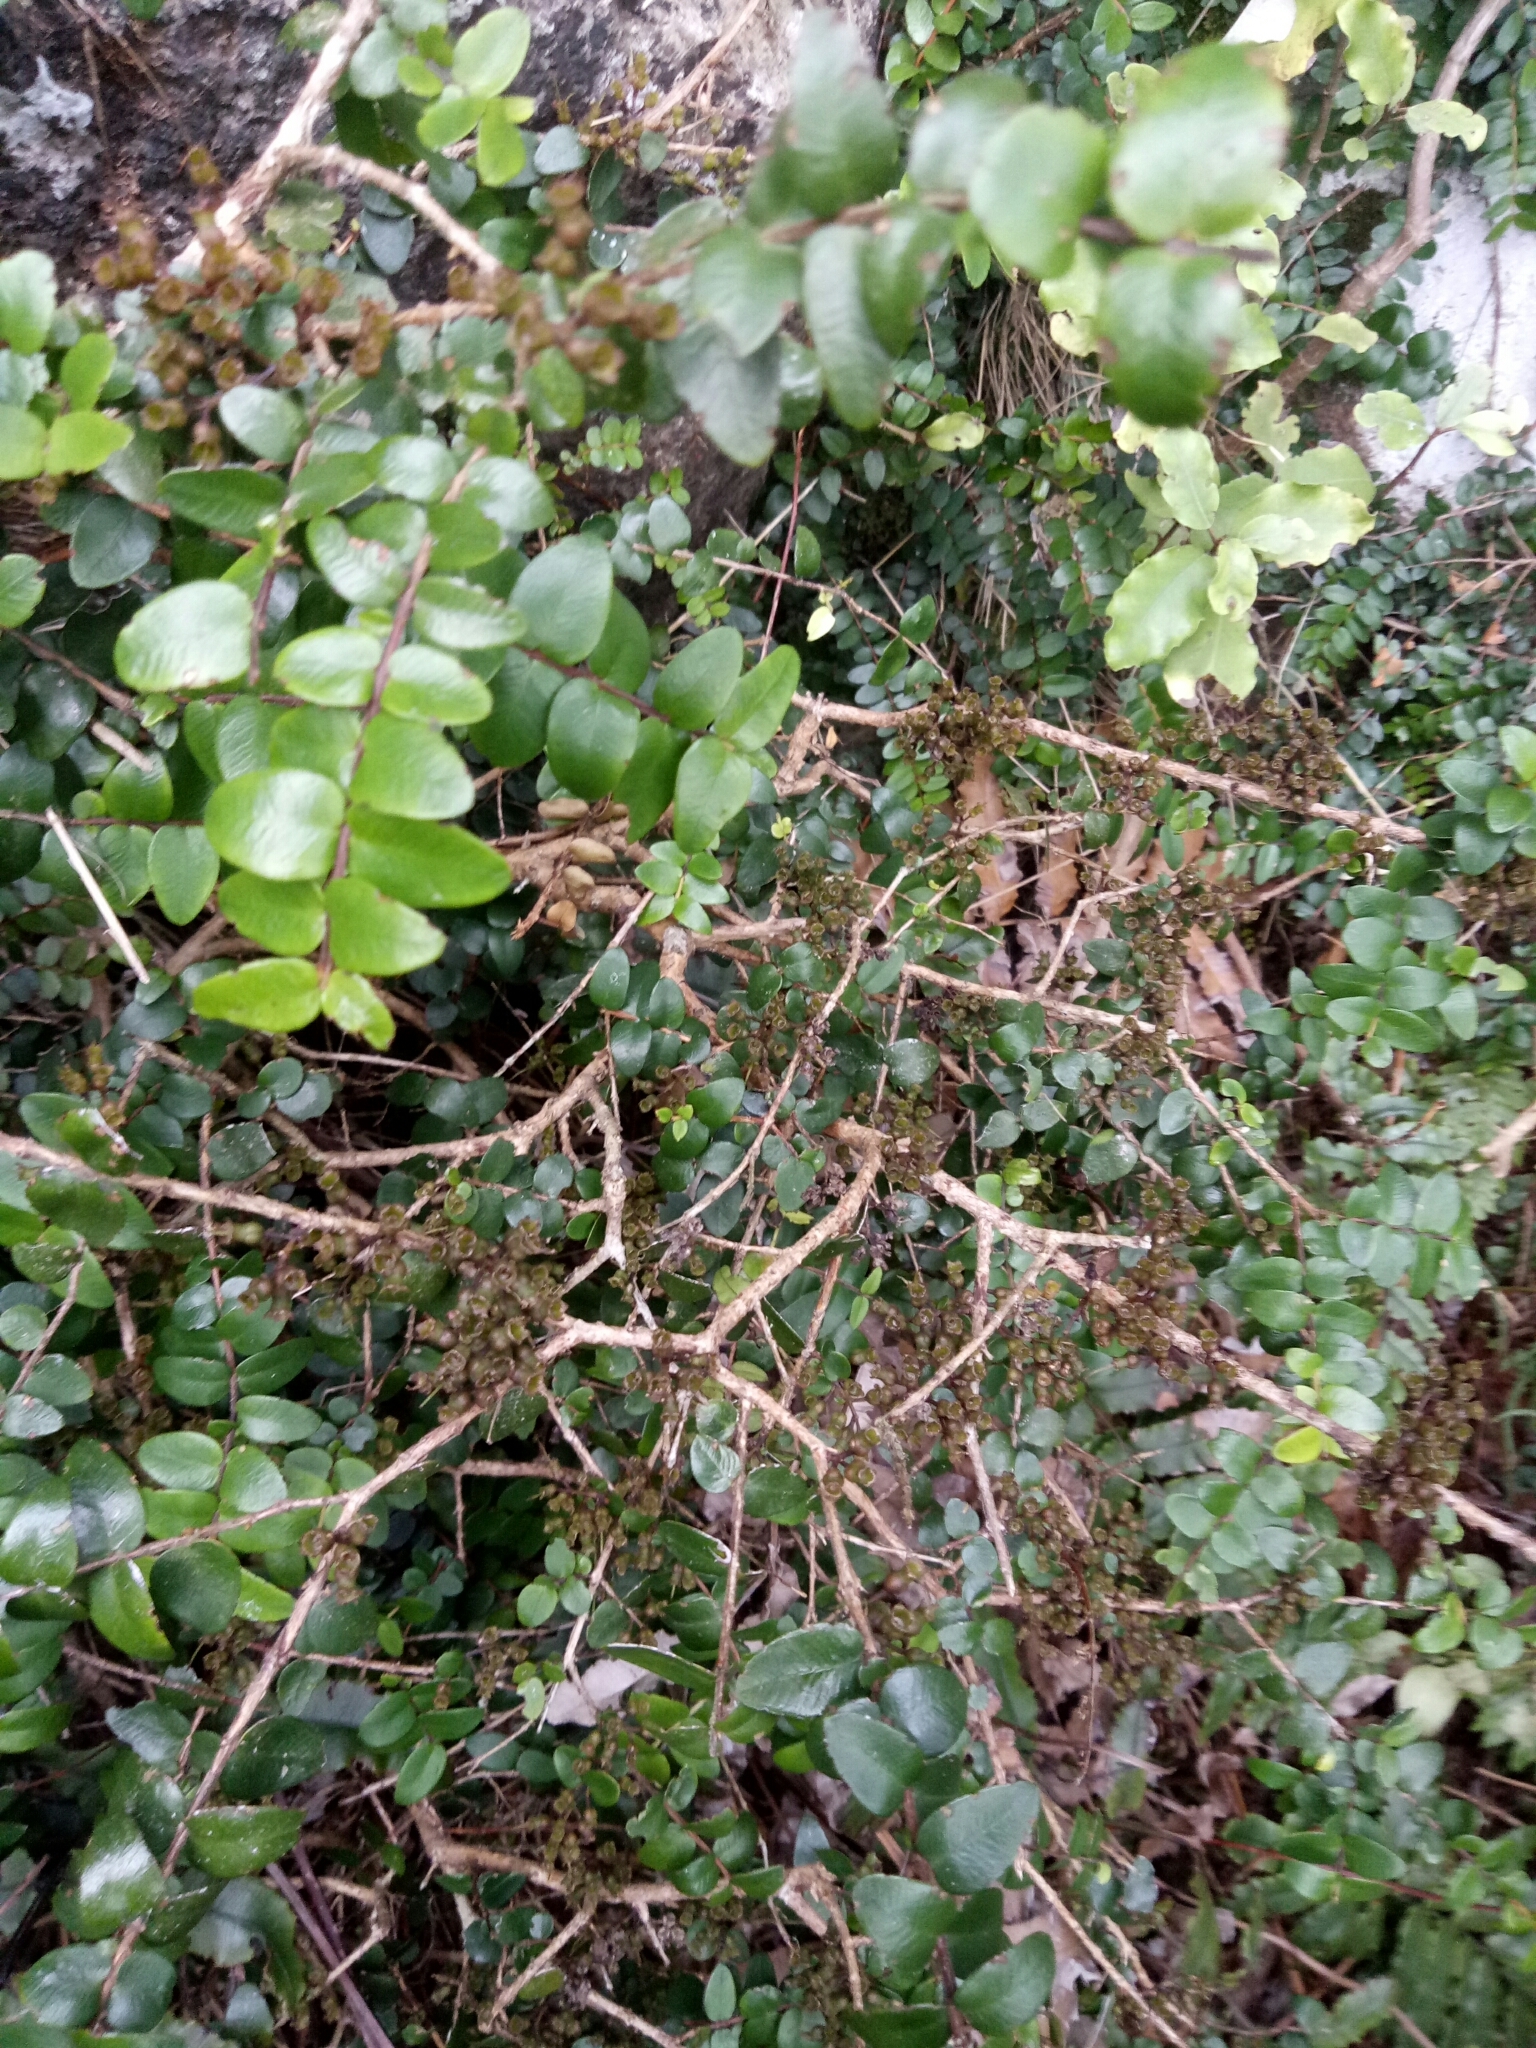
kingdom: Plantae
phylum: Tracheophyta
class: Magnoliopsida
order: Myrtales
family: Myrtaceae
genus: Metrosideros
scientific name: Metrosideros diffusa
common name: Small ratavine
